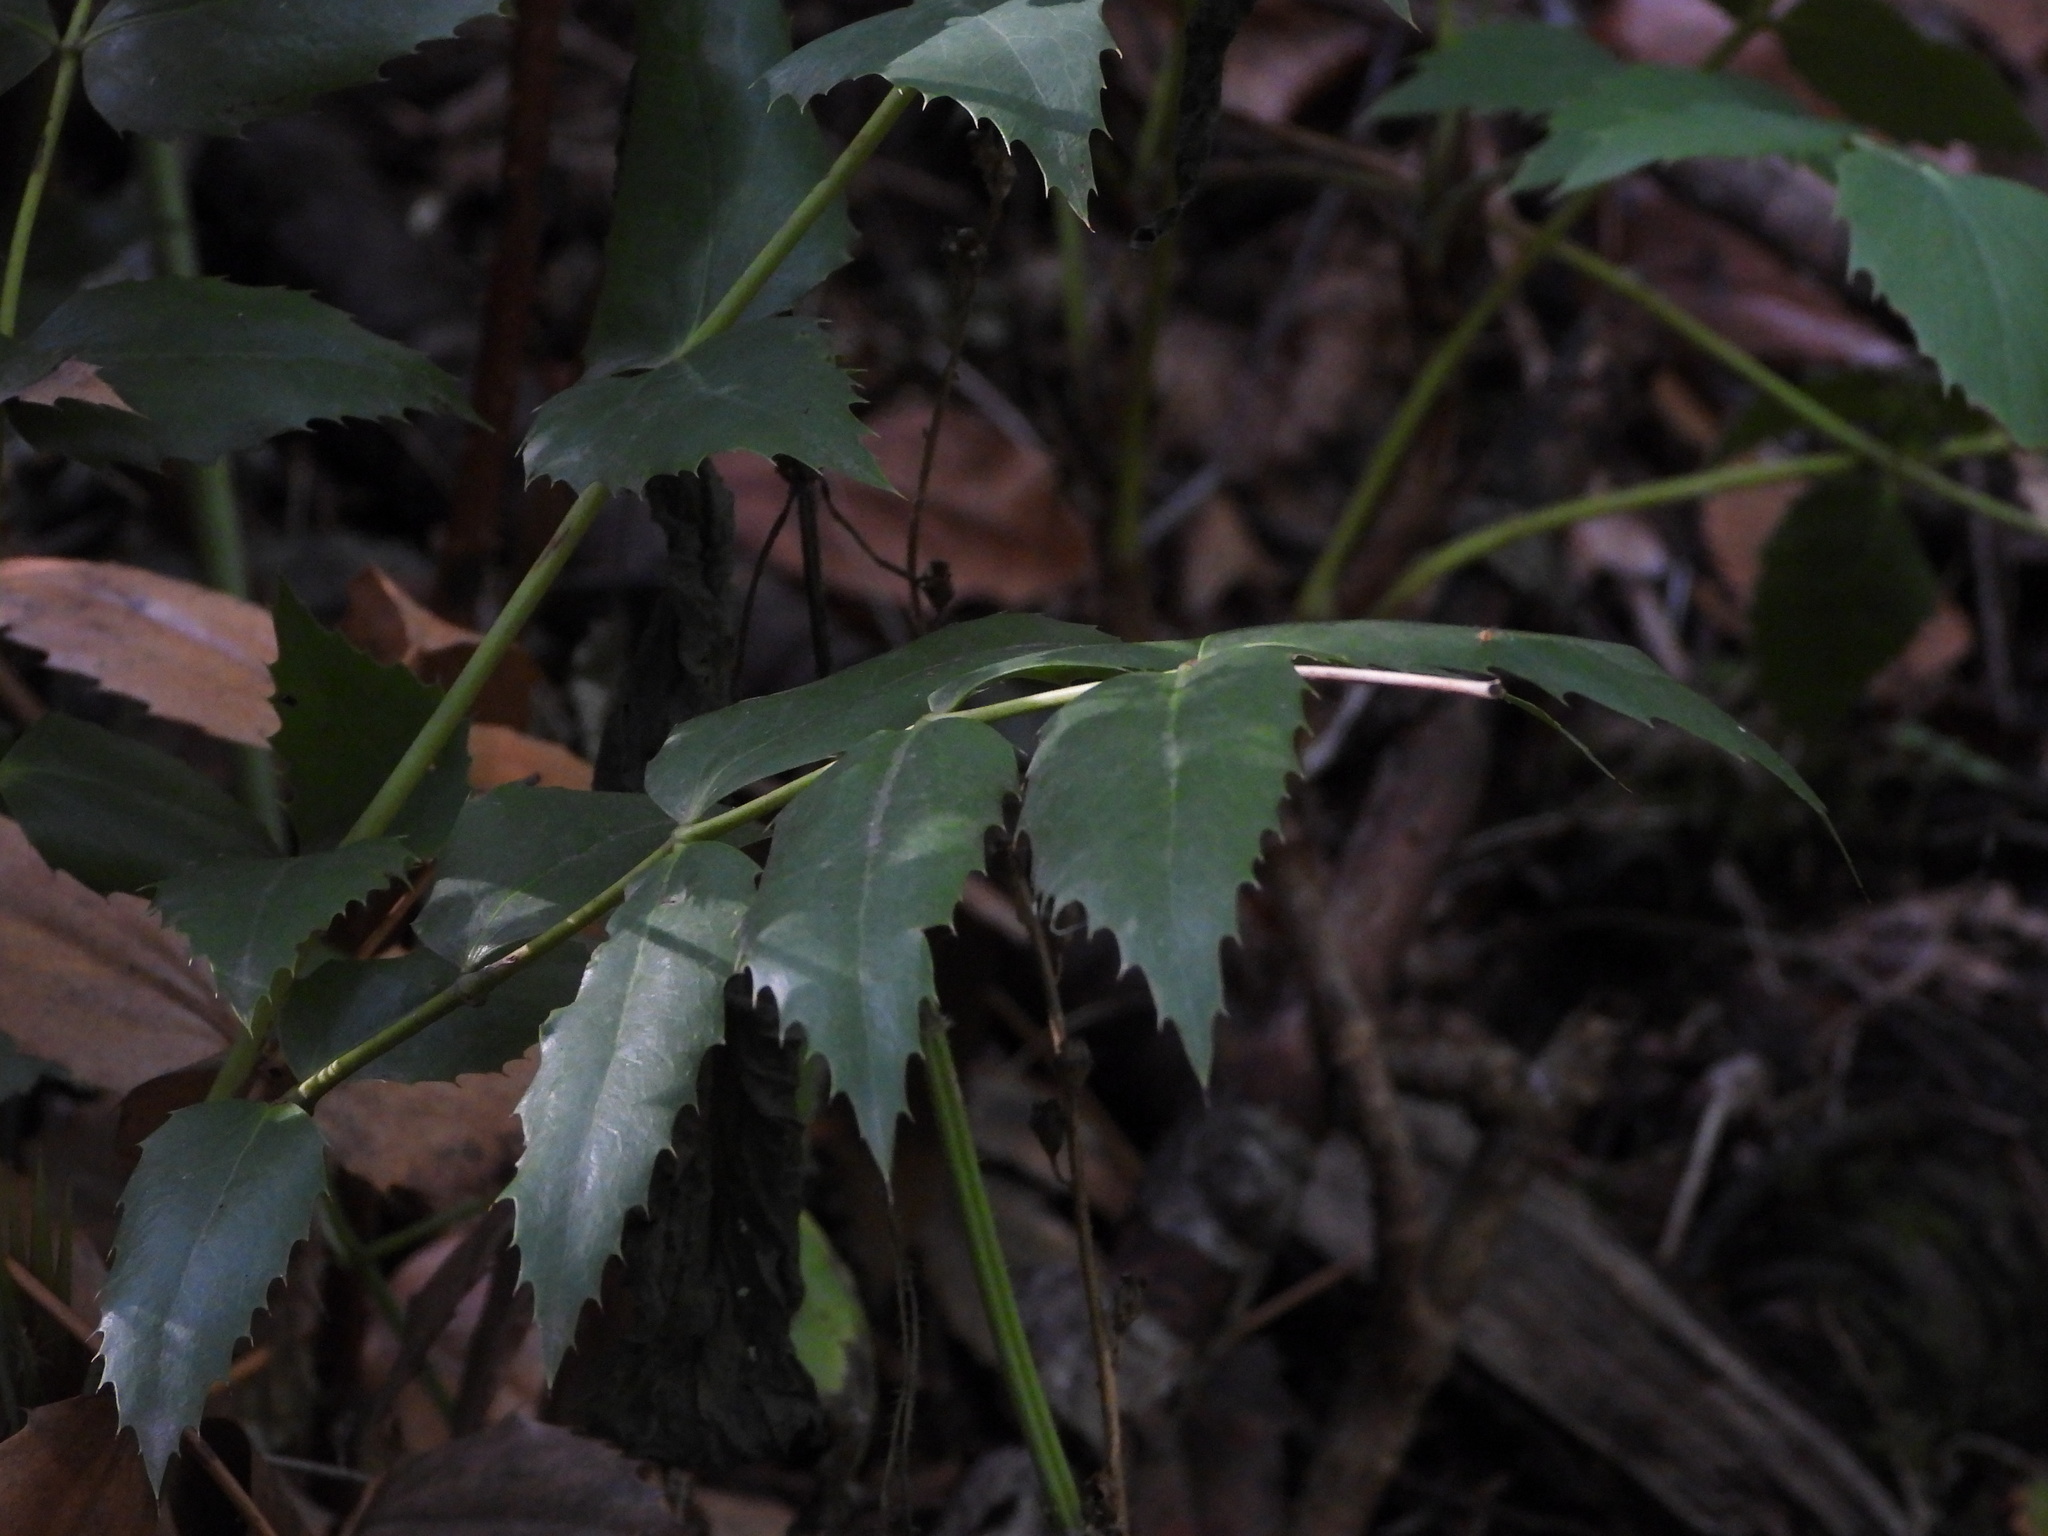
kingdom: Plantae
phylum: Tracheophyta
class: Magnoliopsida
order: Ranunculales
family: Berberidaceae
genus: Mahonia
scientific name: Mahonia nervosa
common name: Cascade oregon-grape
